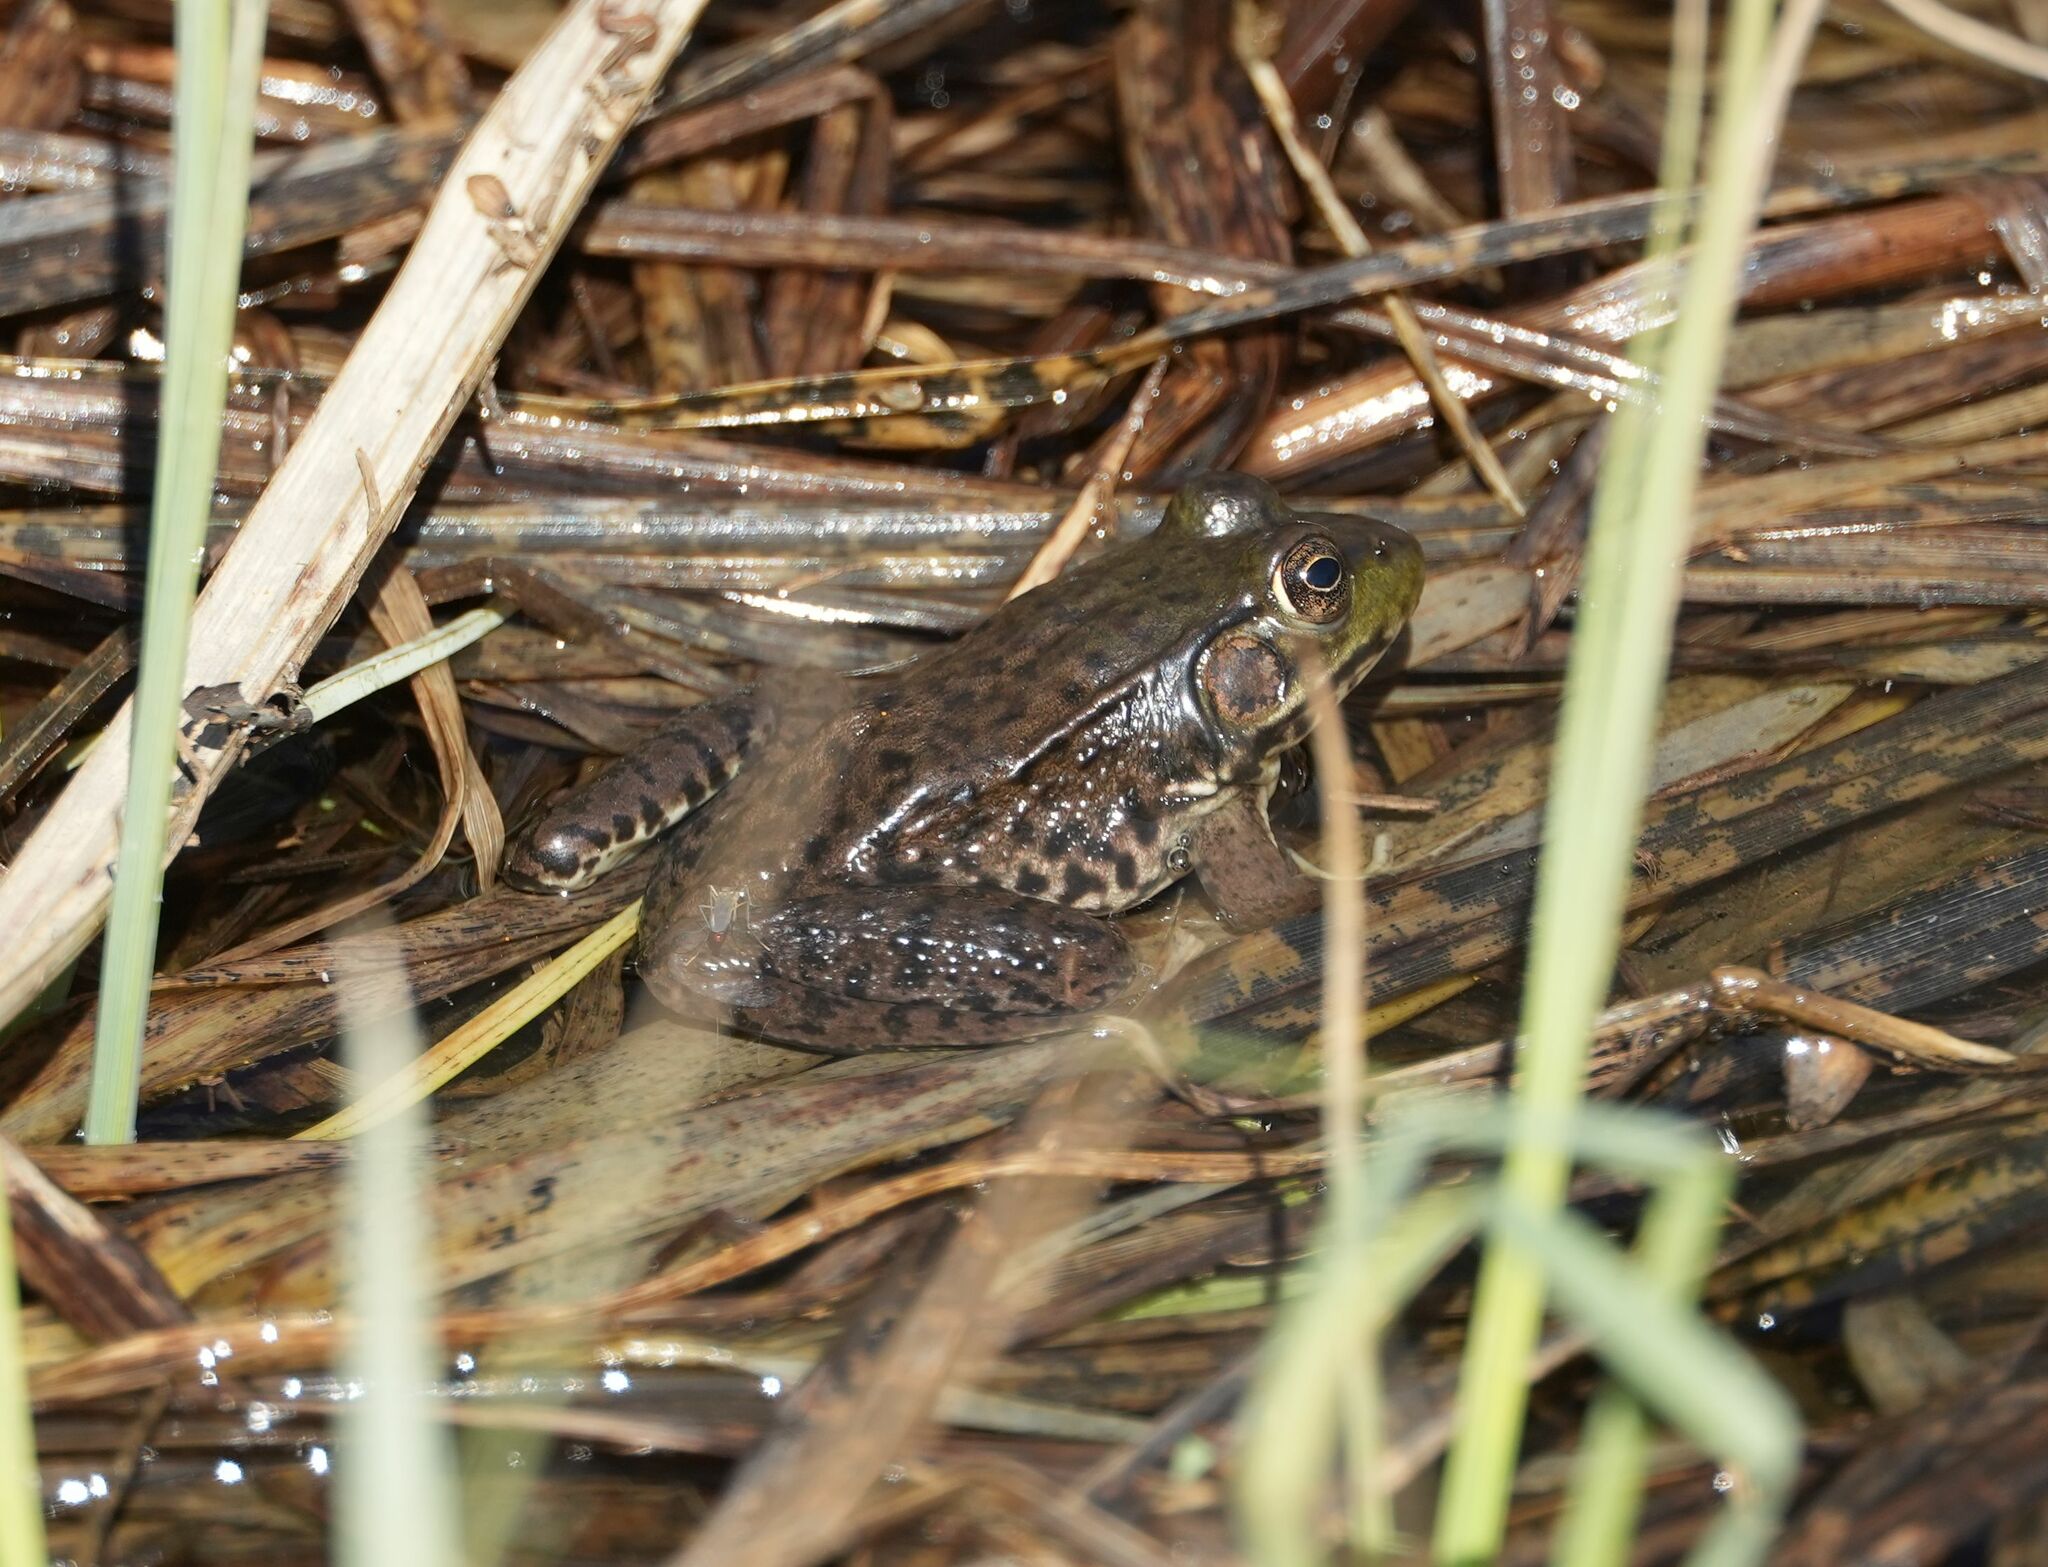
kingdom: Animalia
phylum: Chordata
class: Amphibia
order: Anura
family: Ranidae
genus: Lithobates
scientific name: Lithobates clamitans
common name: Green frog
